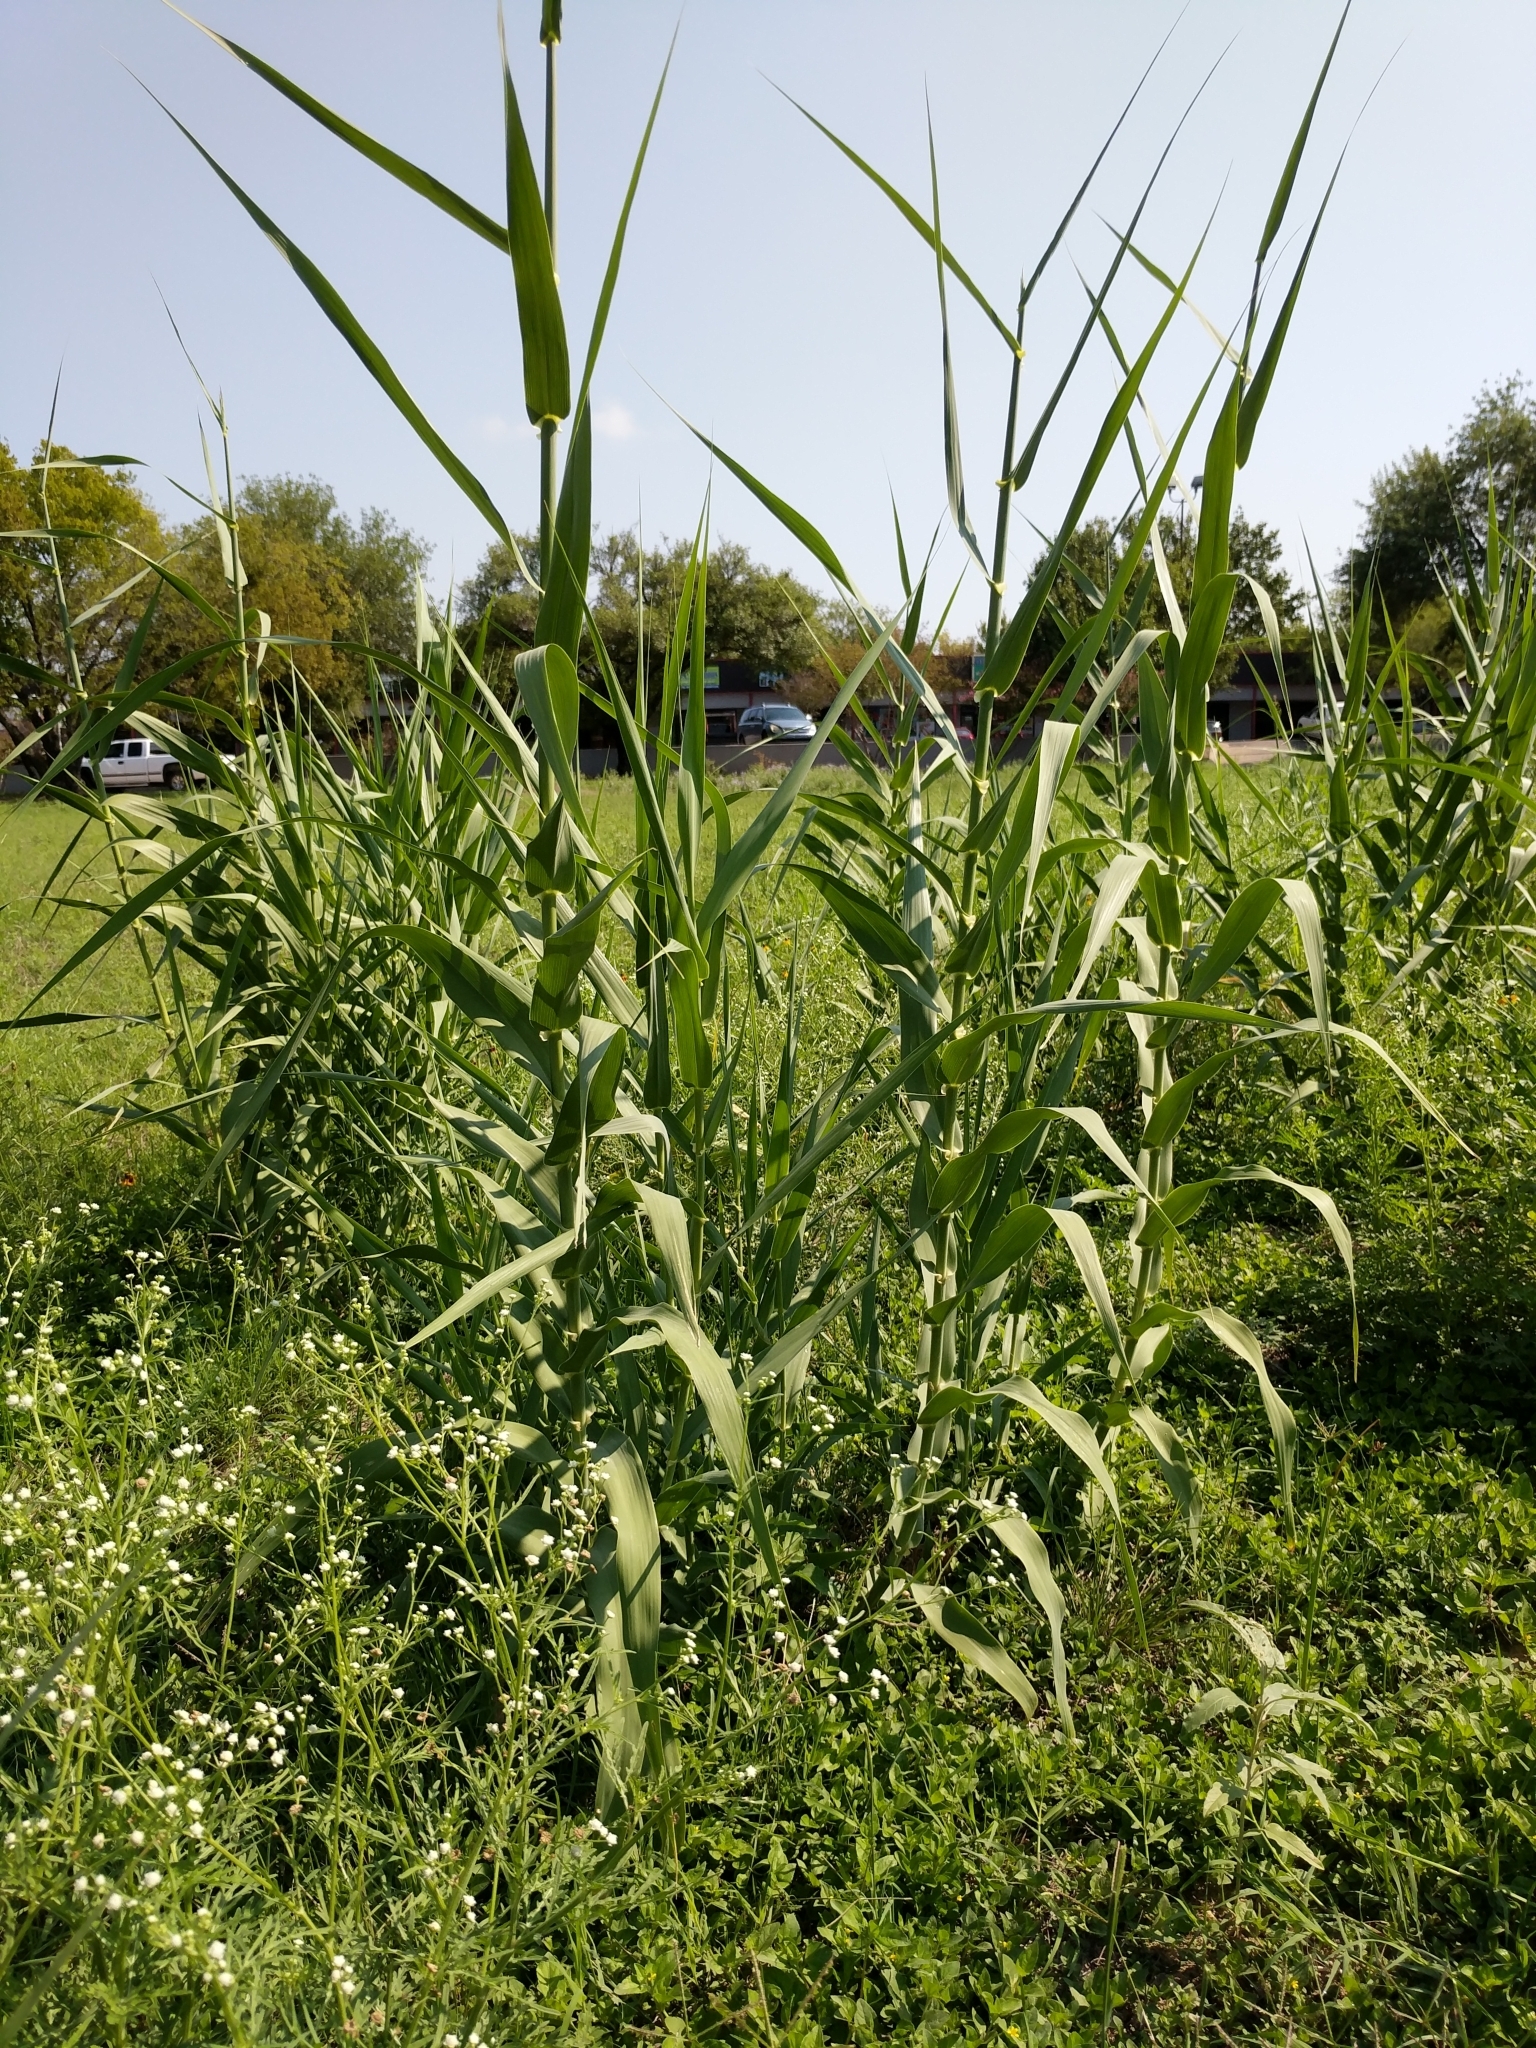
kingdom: Plantae
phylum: Tracheophyta
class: Liliopsida
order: Poales
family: Poaceae
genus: Arundo
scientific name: Arundo donax
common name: Giant reed
